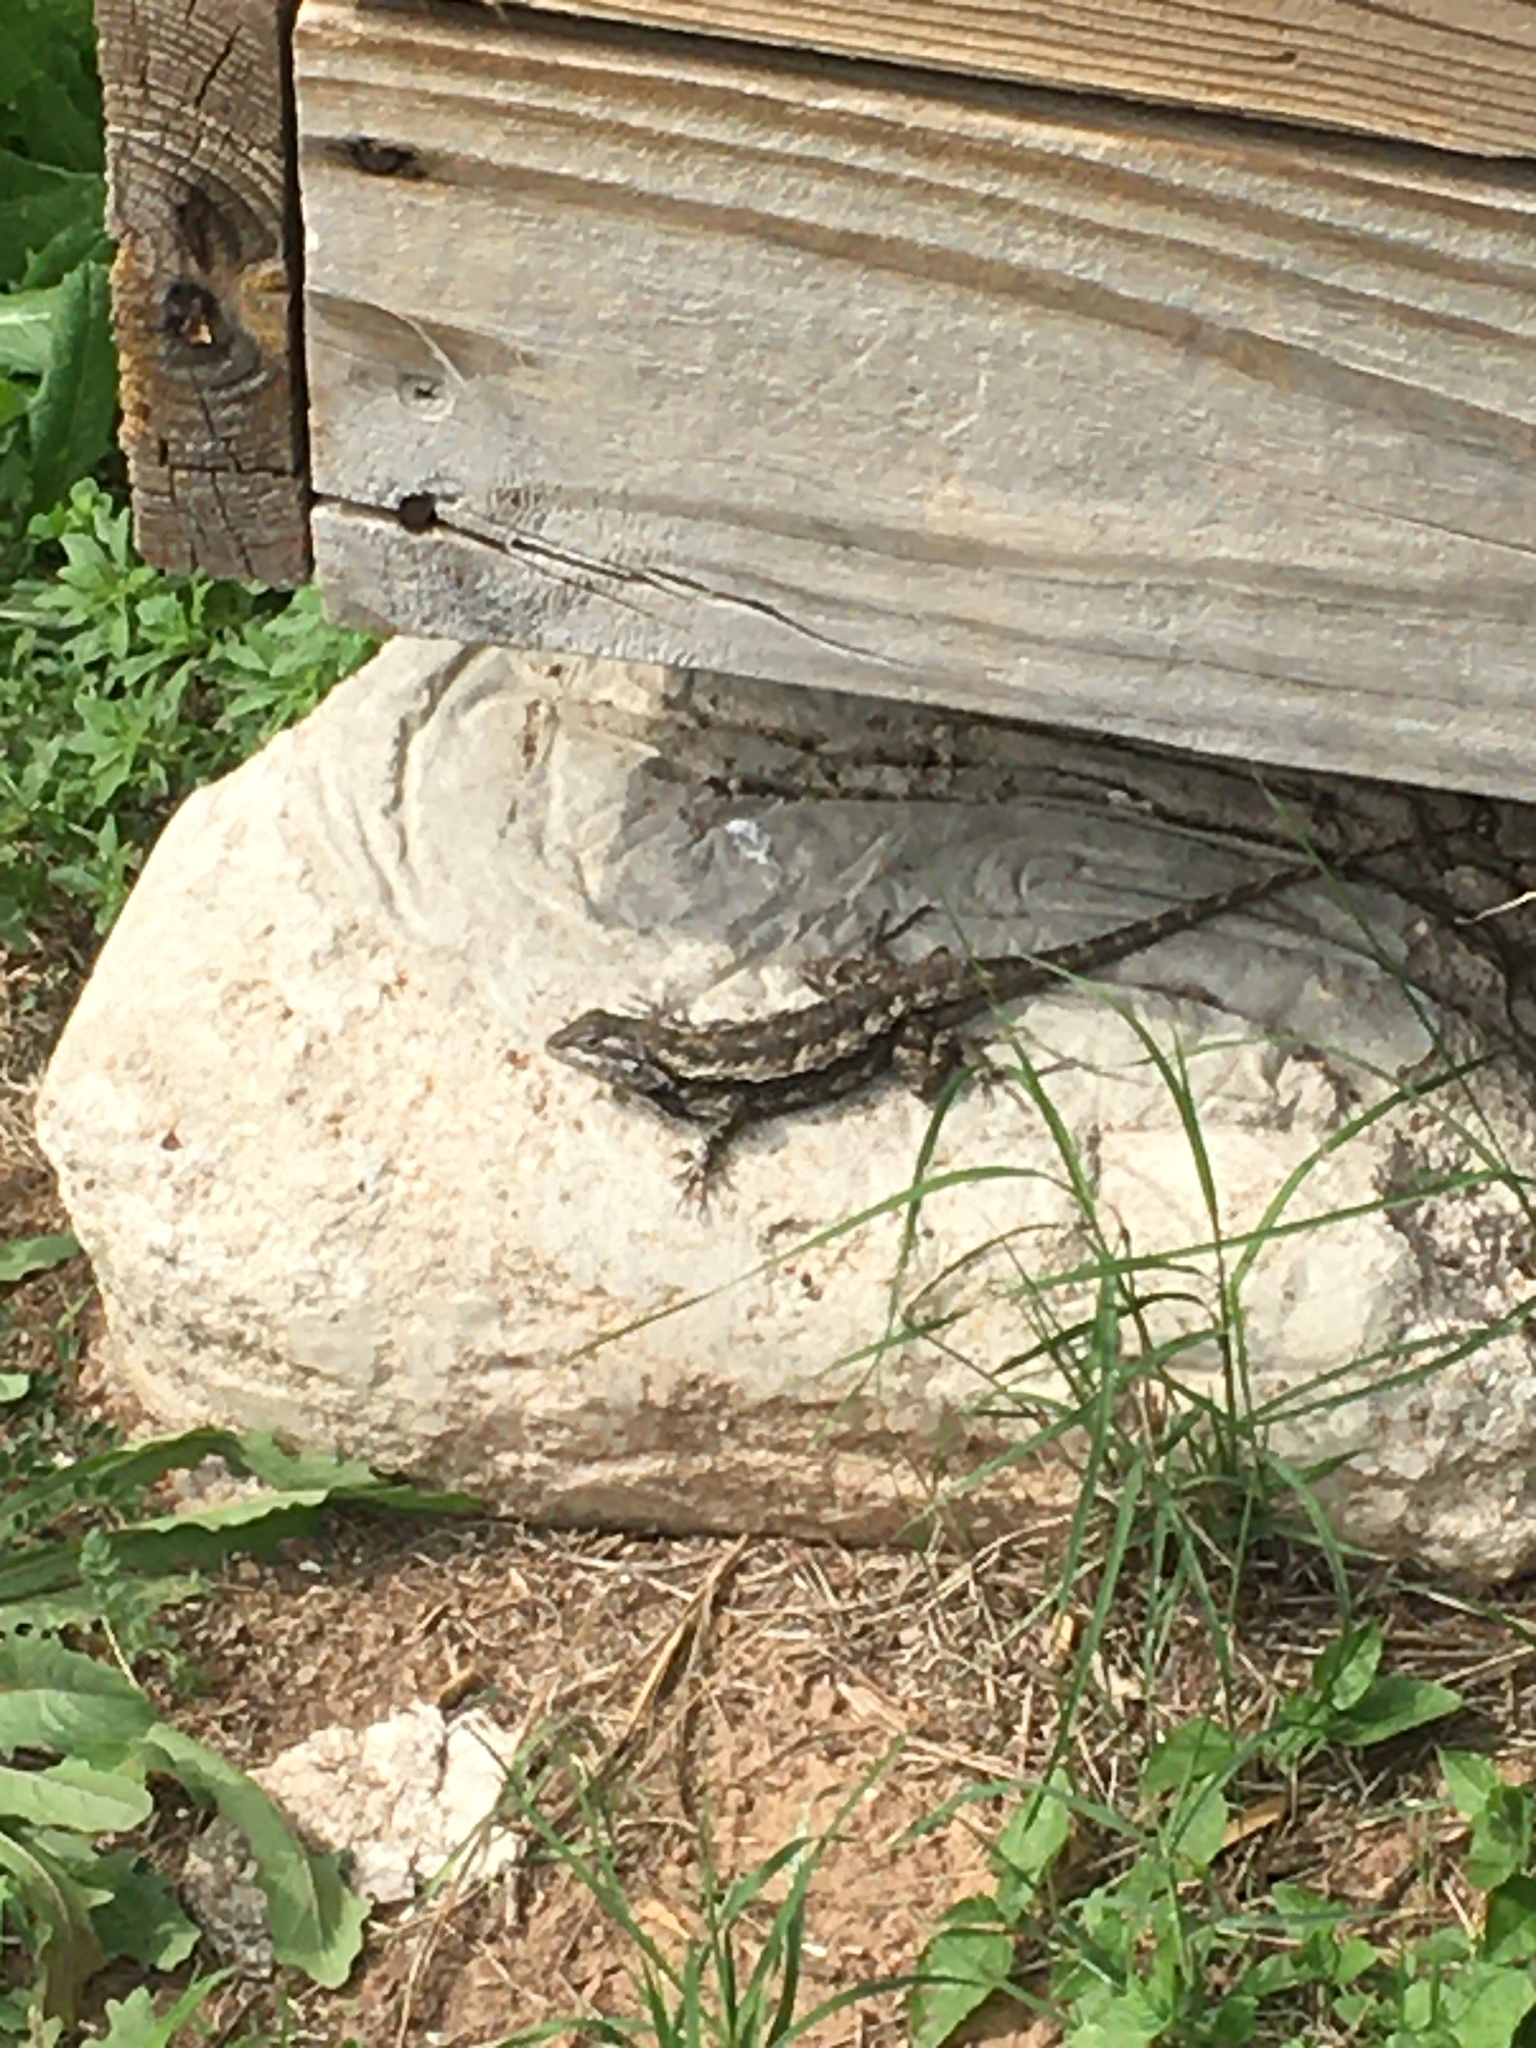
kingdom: Animalia
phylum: Chordata
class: Squamata
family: Phrynosomatidae
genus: Sceloporus
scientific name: Sceloporus olivaceus
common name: Texas spiny lizard
